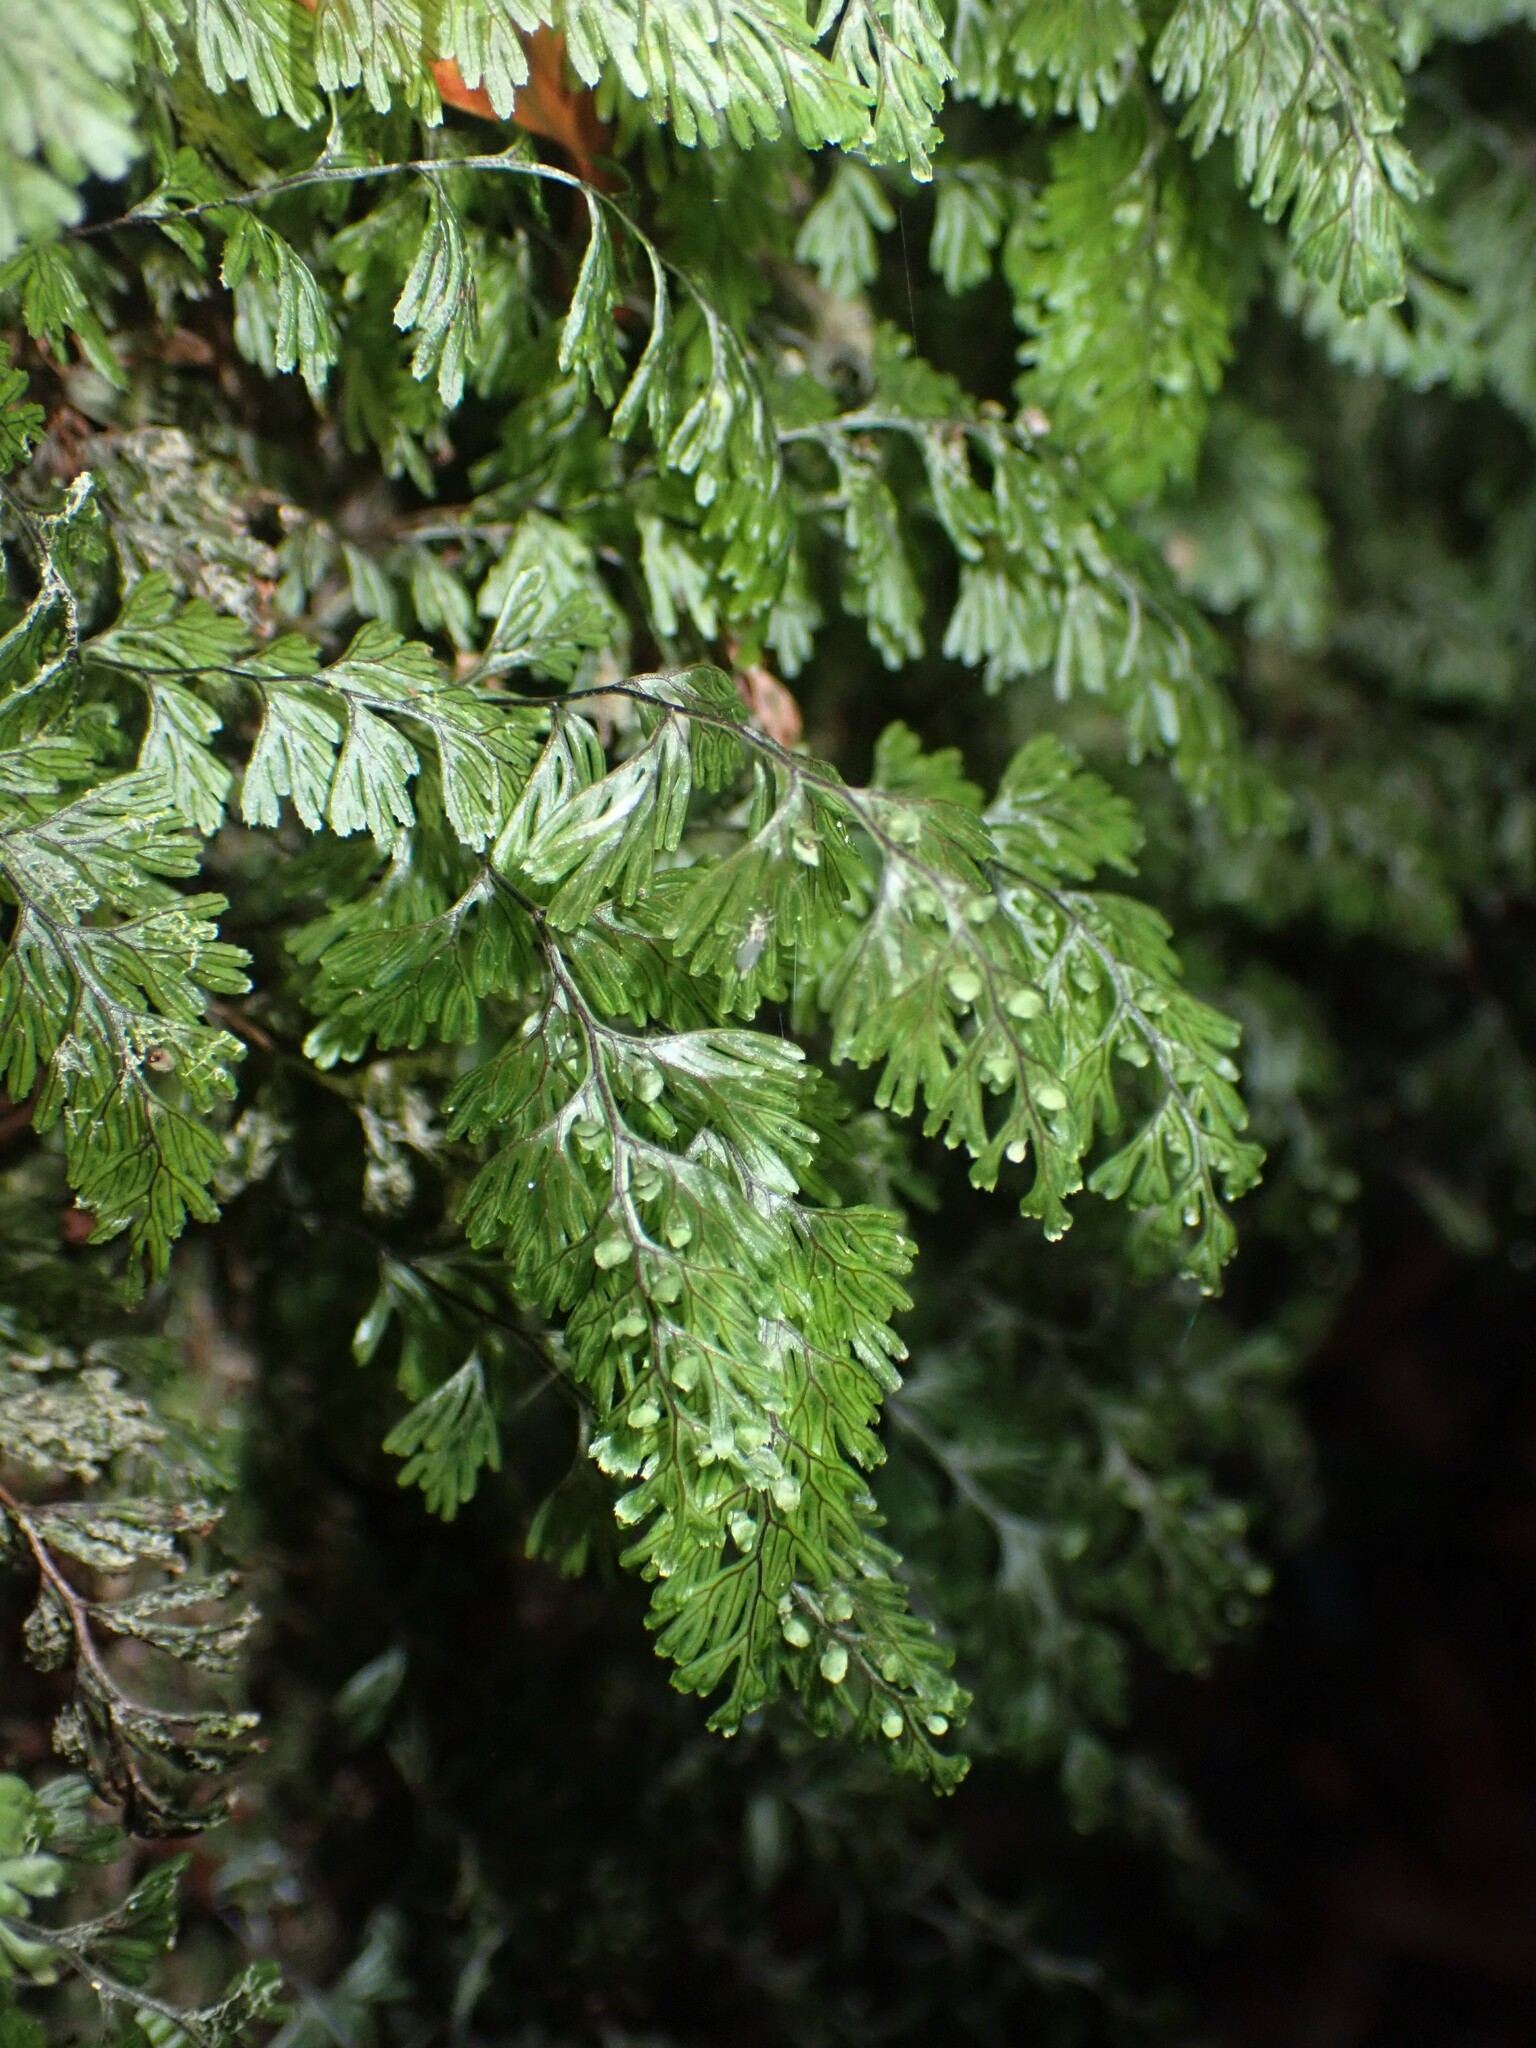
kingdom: Plantae
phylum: Tracheophyta
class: Polypodiopsida
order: Hymenophyllales
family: Hymenophyllaceae
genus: Hymenophyllum
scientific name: Hymenophyllum tunbrigense
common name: Tunbridge filmy fern
